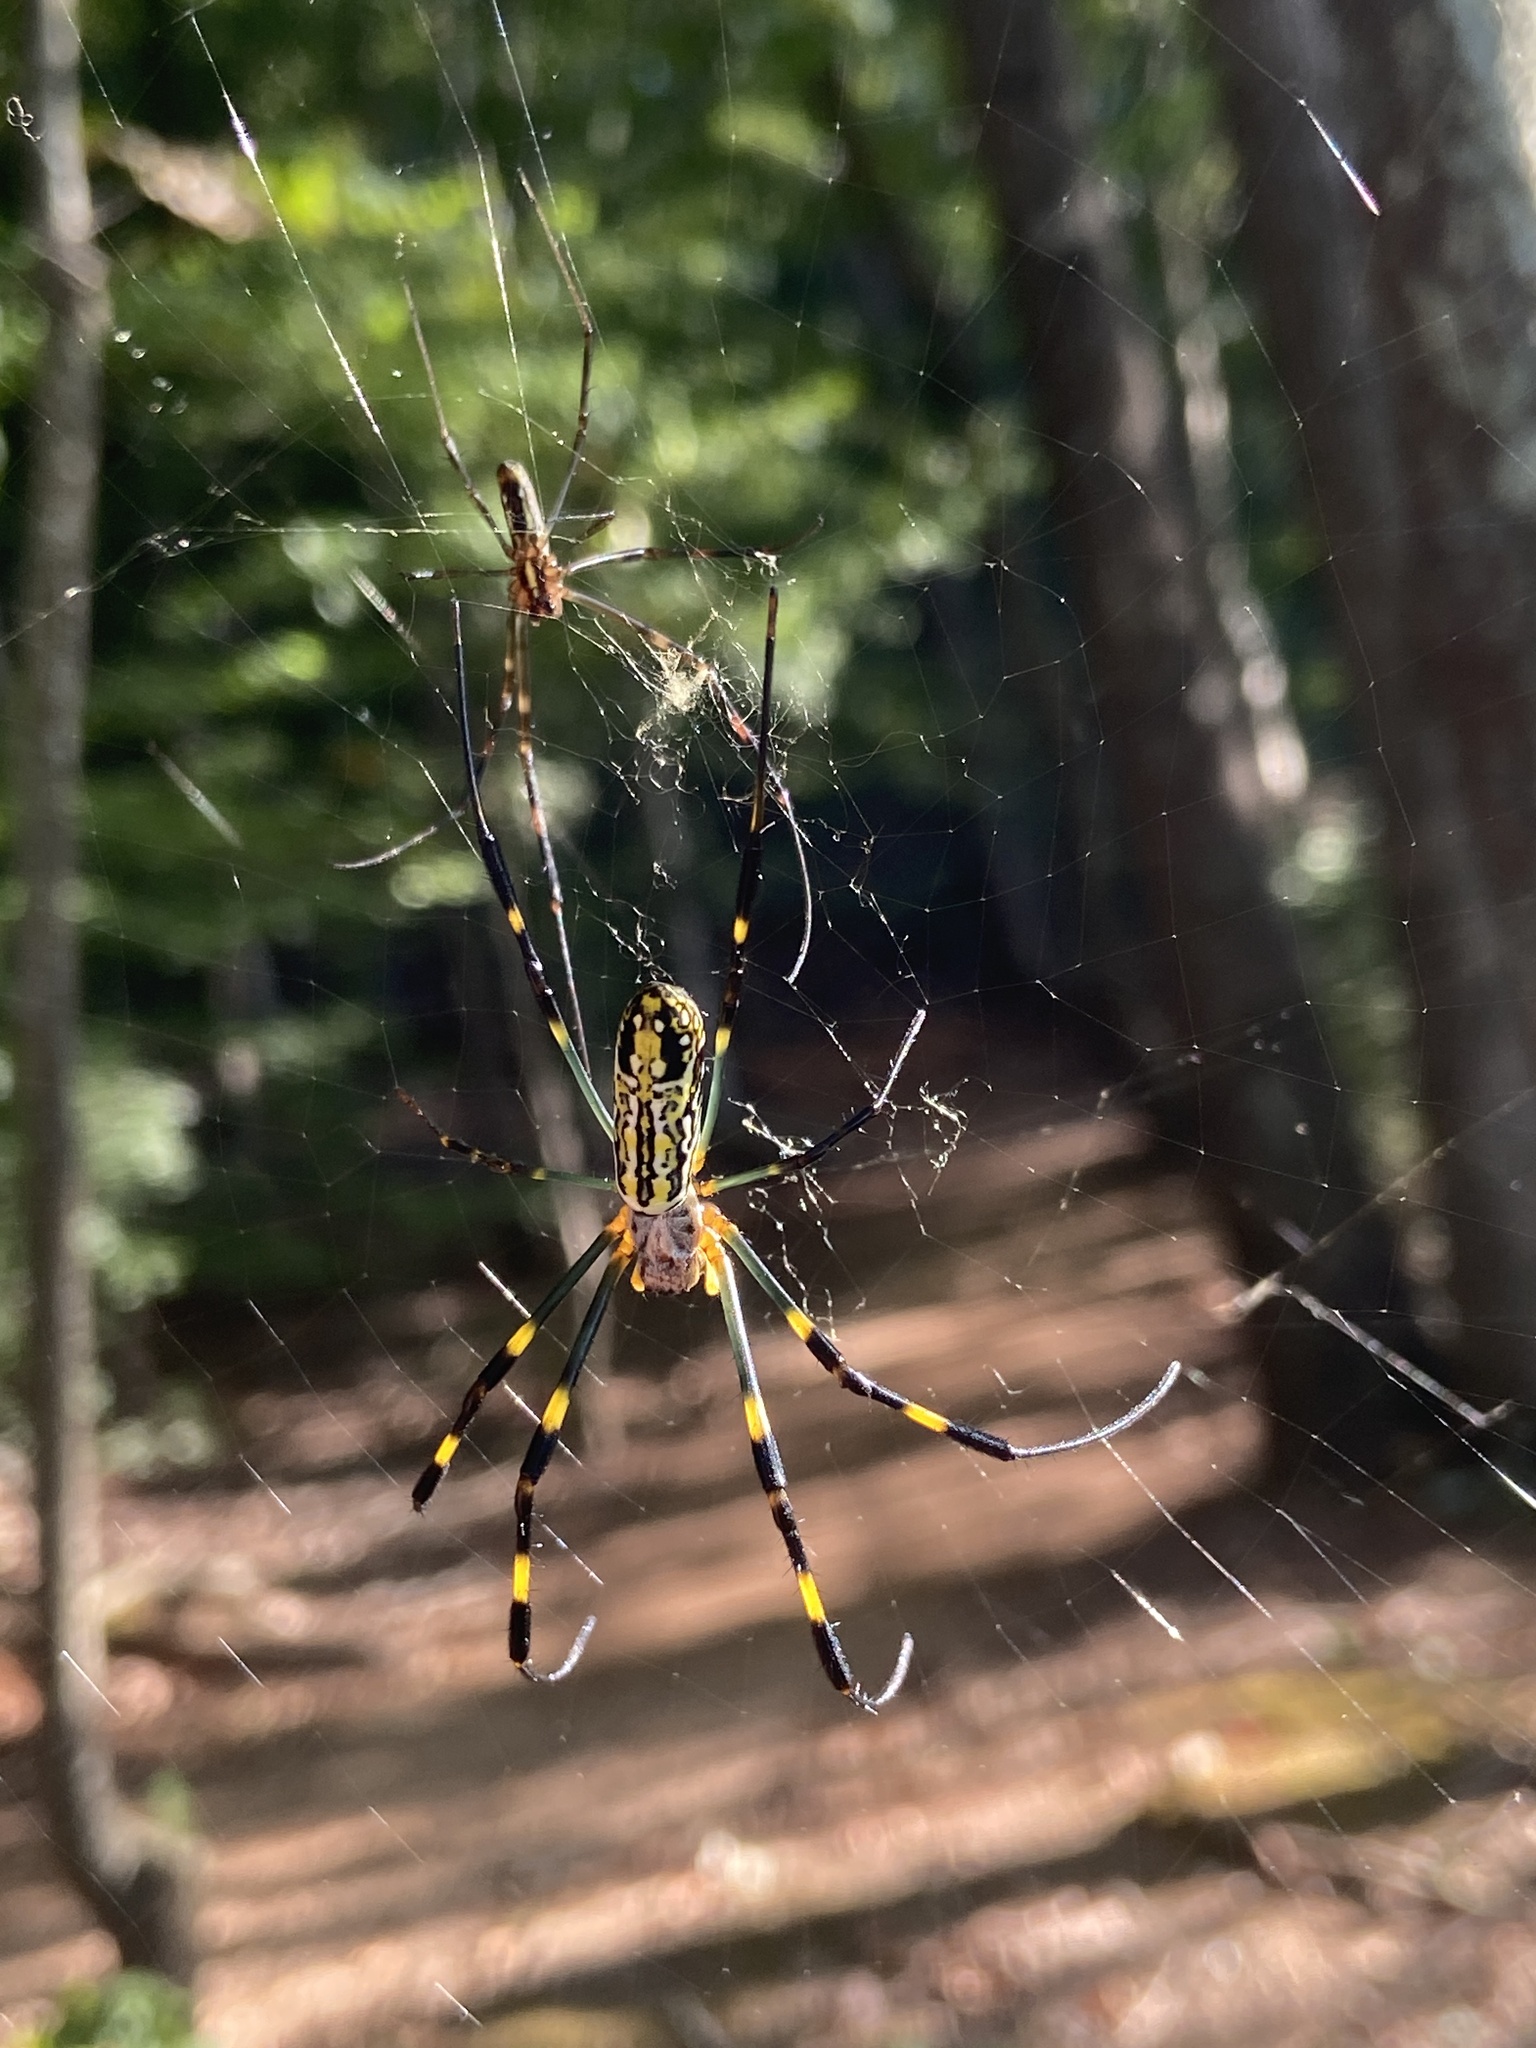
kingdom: Animalia
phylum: Arthropoda
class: Arachnida
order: Araneae
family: Araneidae
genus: Trichonephila
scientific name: Trichonephila clavata
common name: Jorō spider
